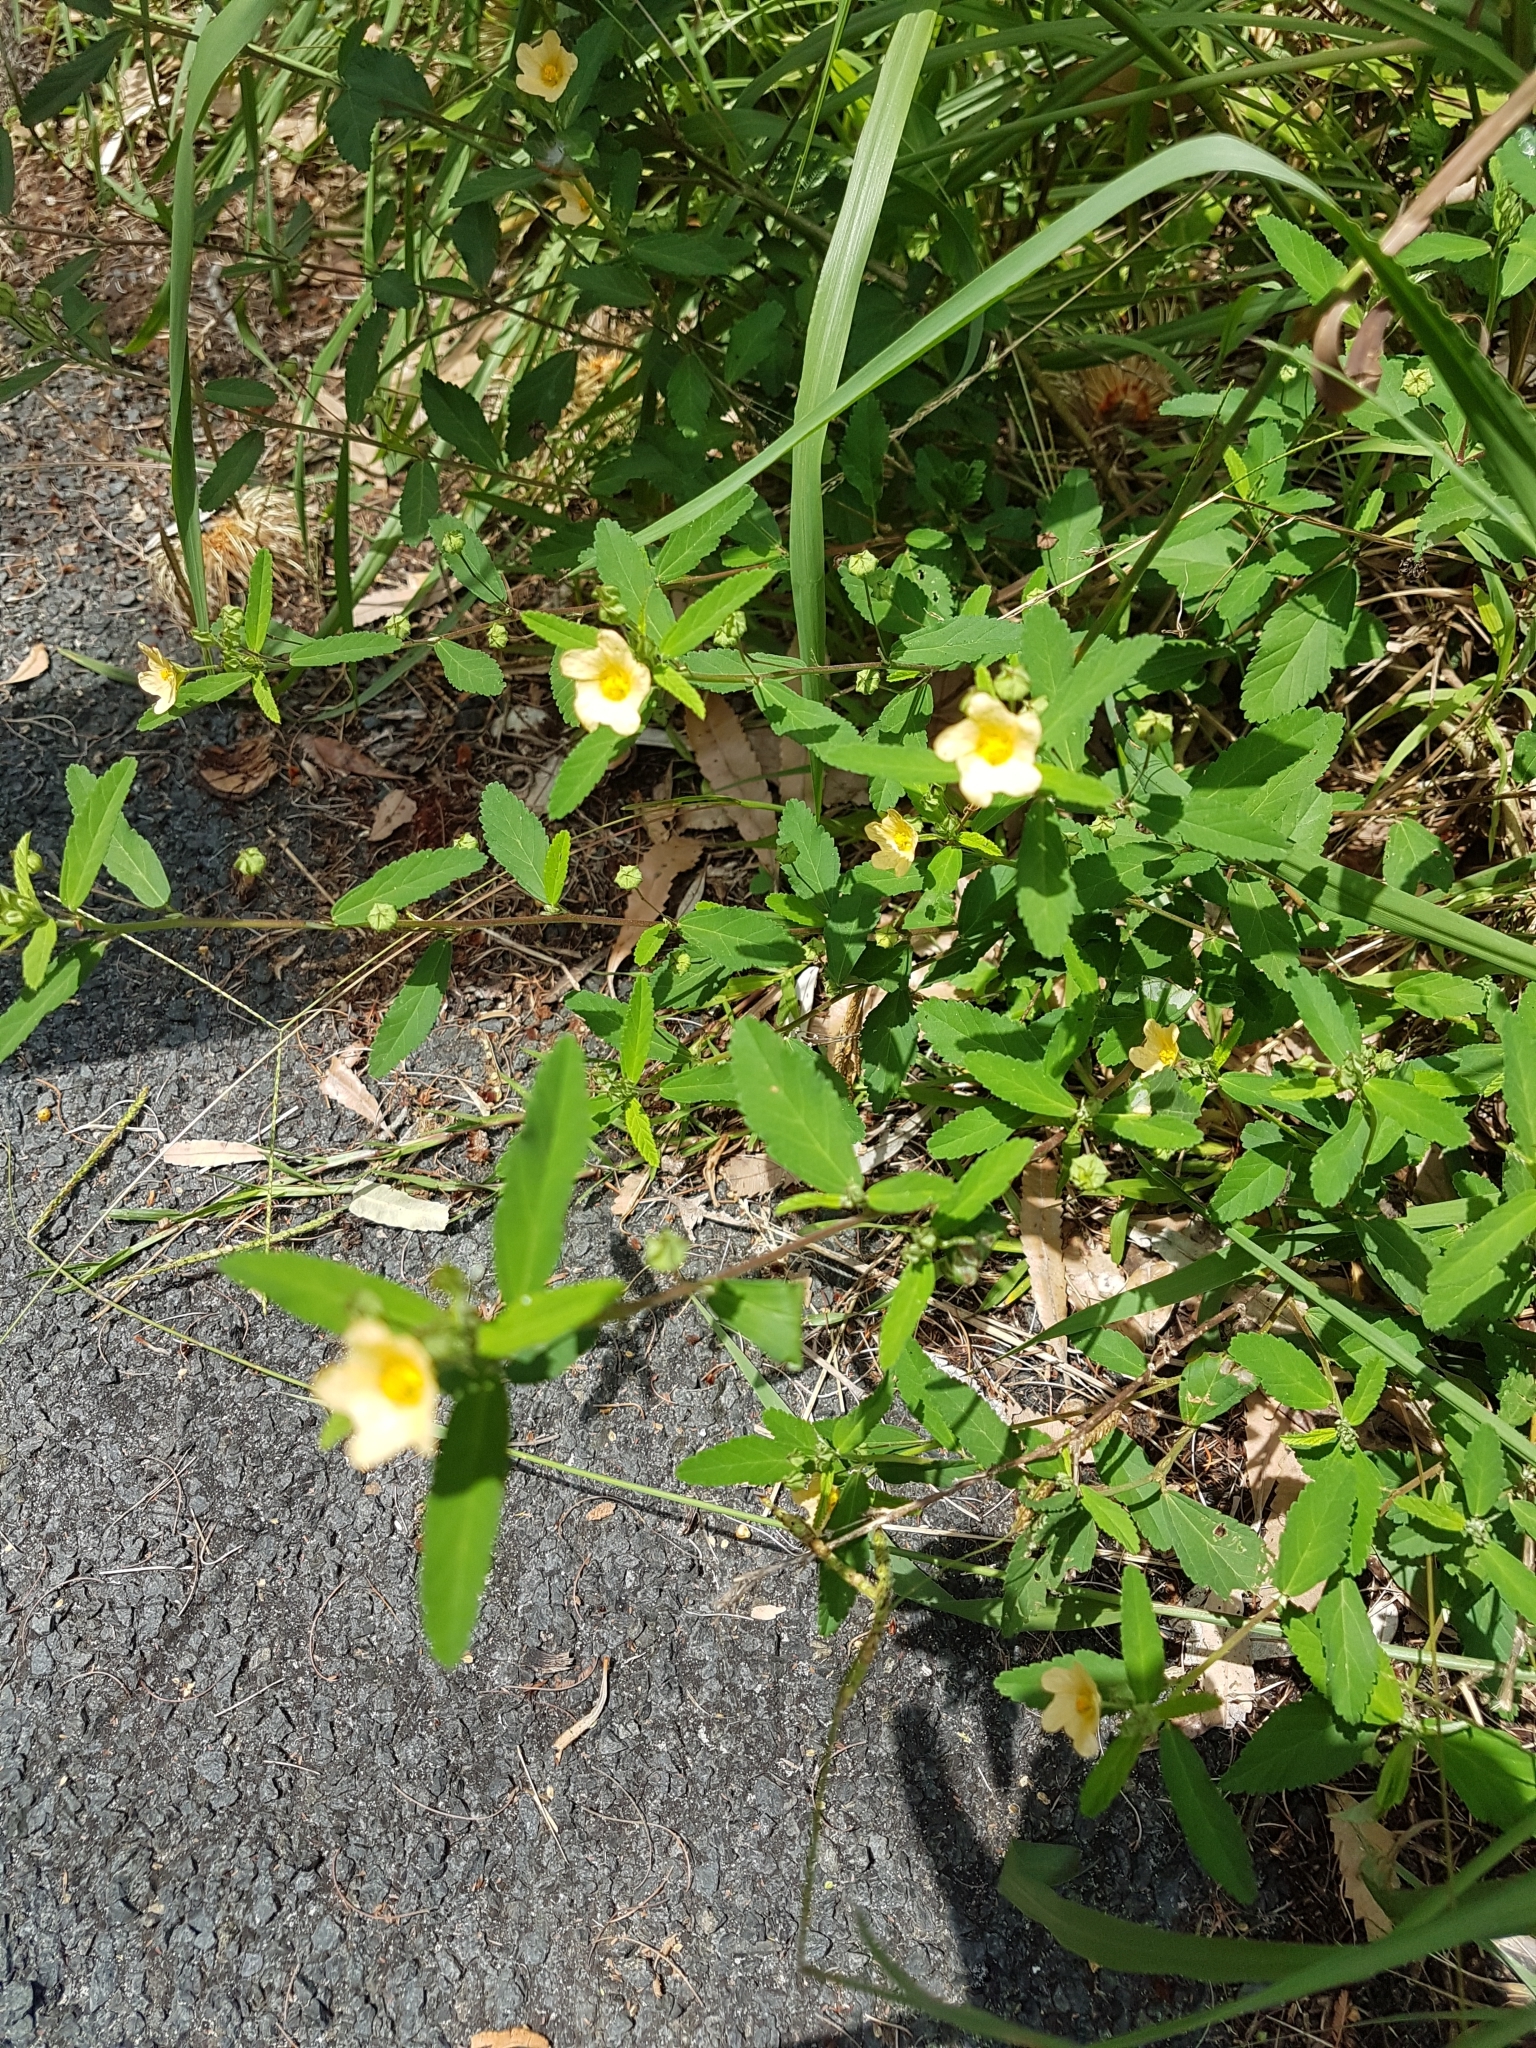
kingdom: Plantae
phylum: Tracheophyta
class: Magnoliopsida
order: Malvales
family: Malvaceae
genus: Sida
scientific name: Sida rhombifolia
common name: Queensland-hemp
